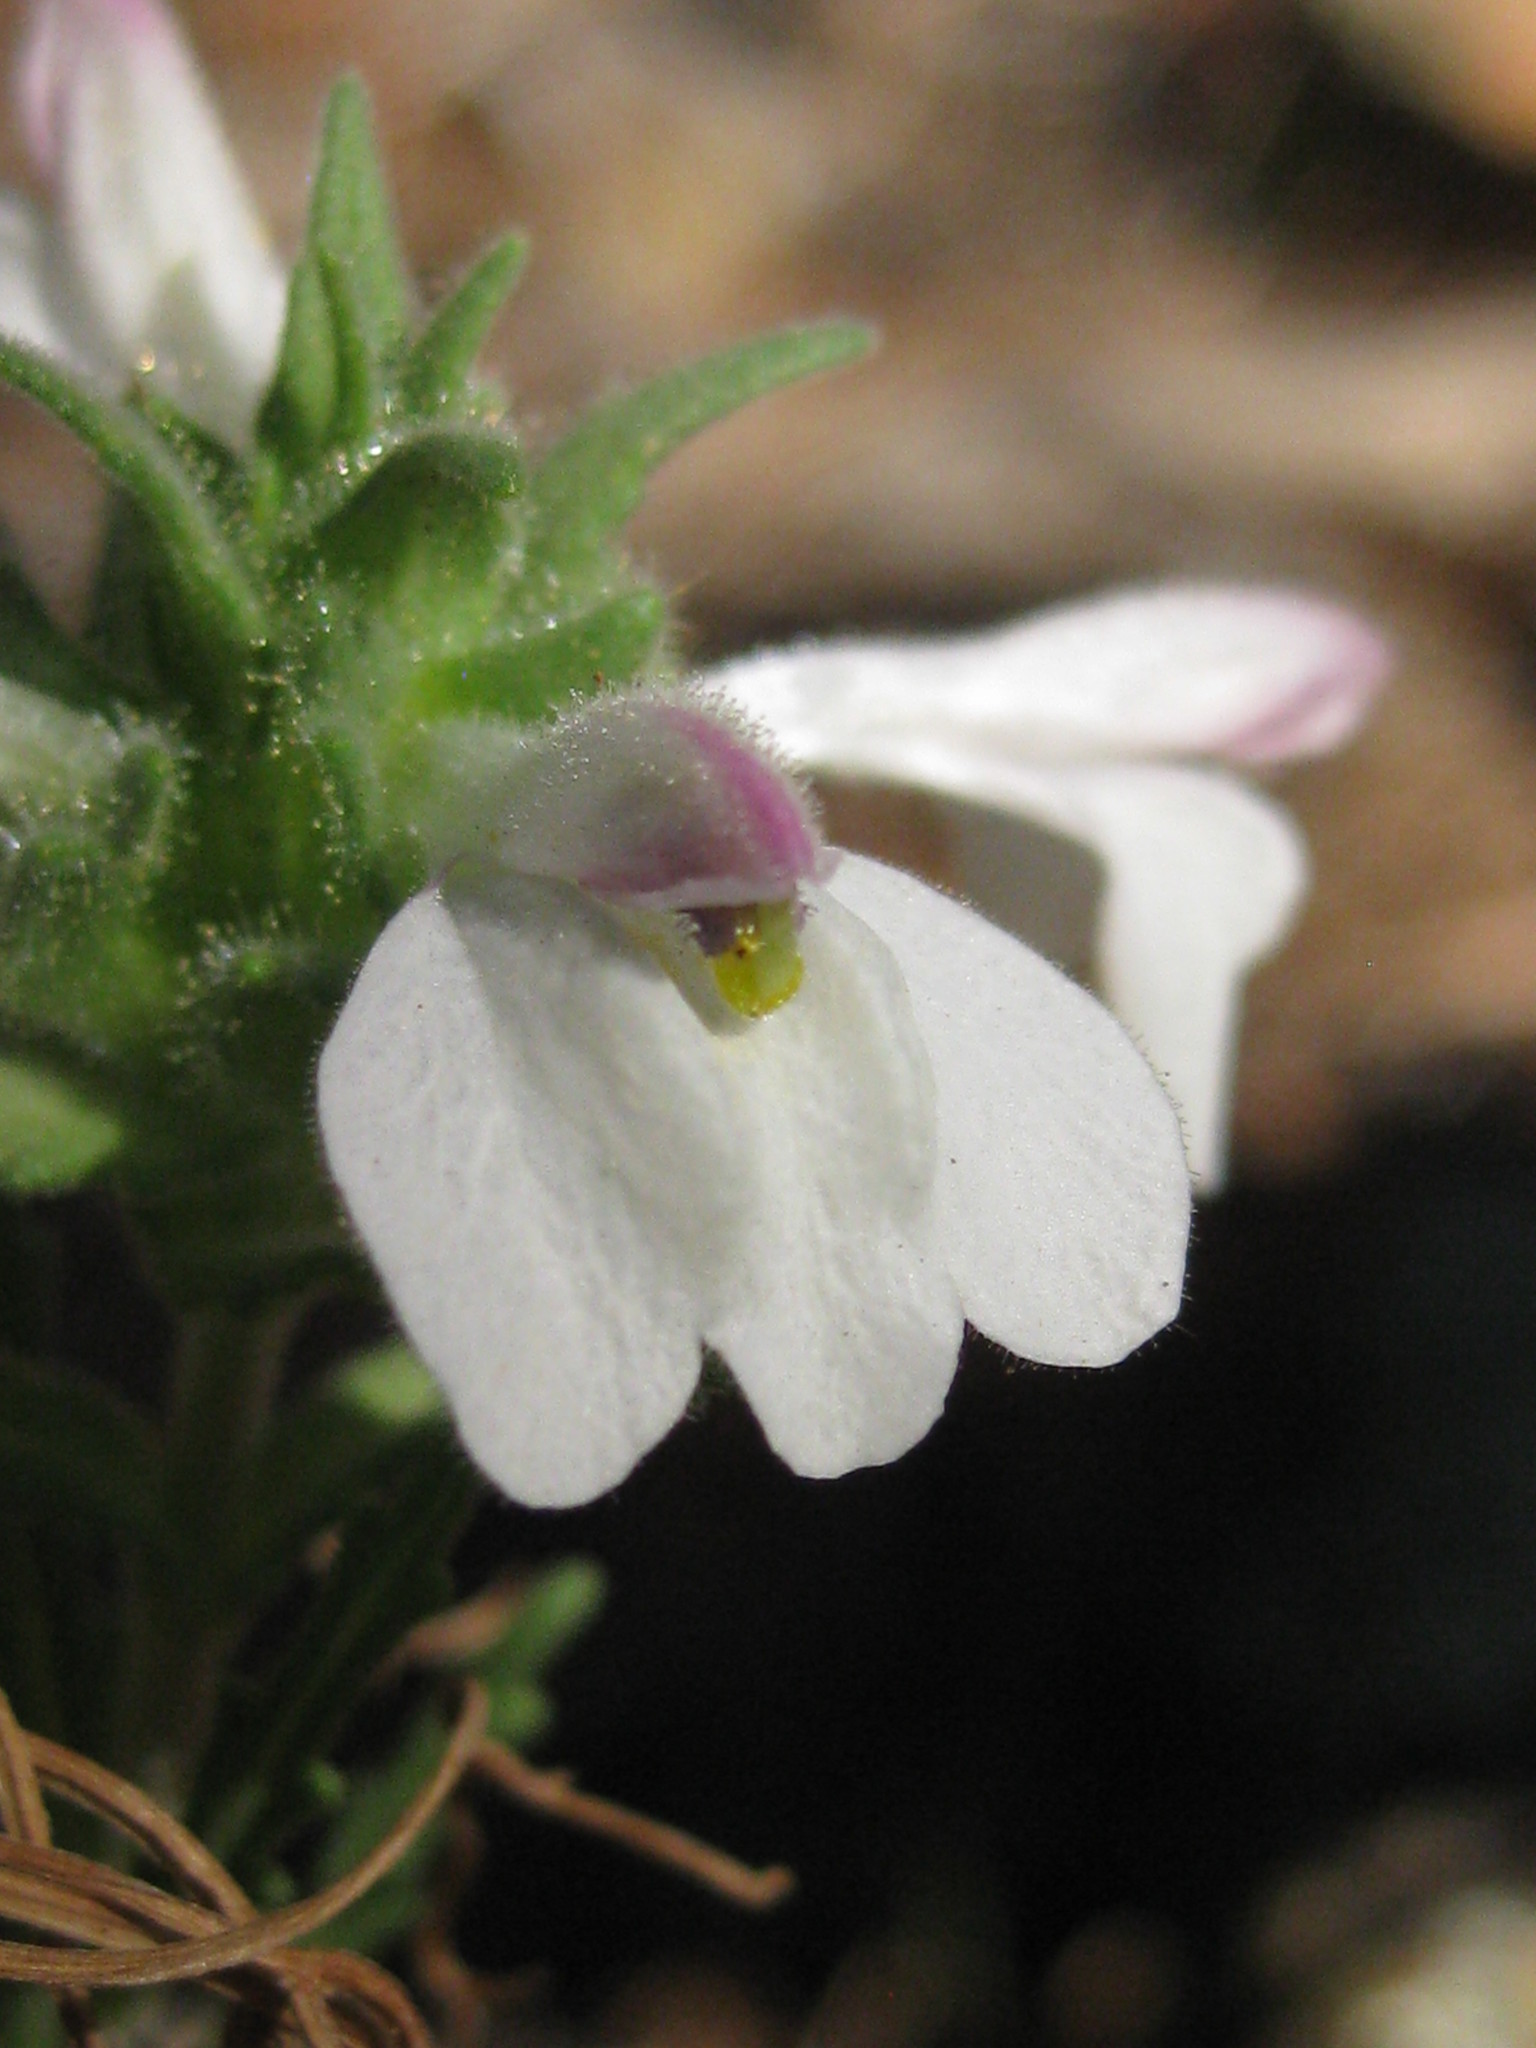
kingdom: Plantae
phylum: Tracheophyta
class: Magnoliopsida
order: Lamiales
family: Orobanchaceae
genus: Bellardia
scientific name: Bellardia trixago
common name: Mediterranean lineseed
